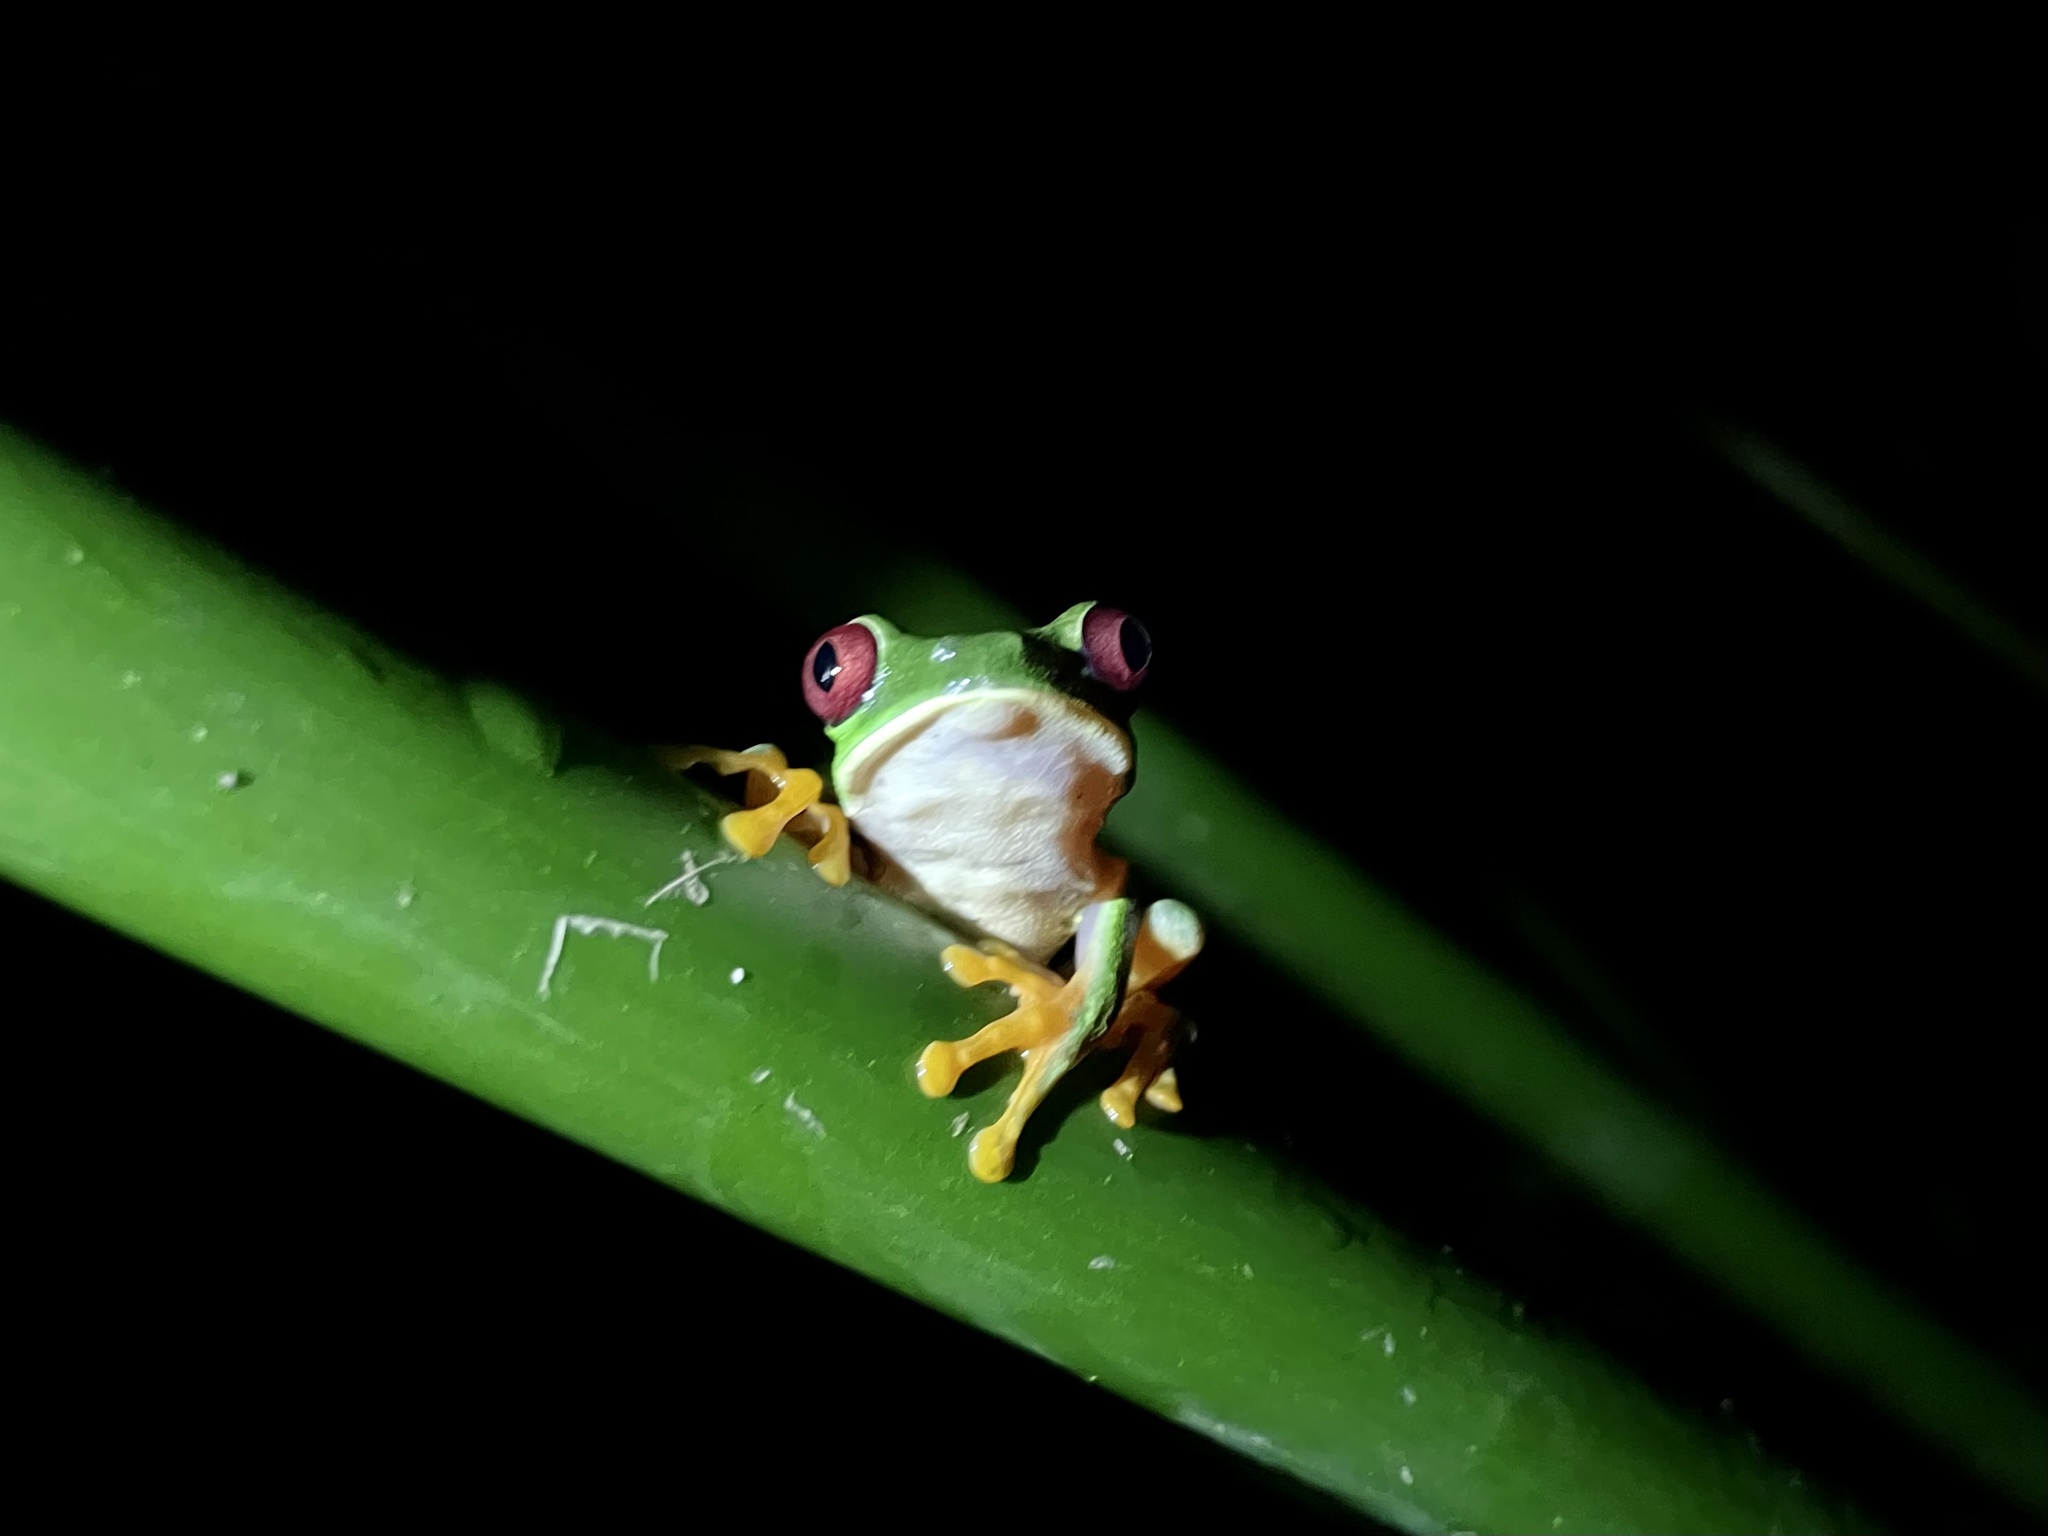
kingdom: Animalia
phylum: Chordata
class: Amphibia
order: Anura
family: Phyllomedusidae
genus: Agalychnis
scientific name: Agalychnis callidryas
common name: Red-eyed treefrog
